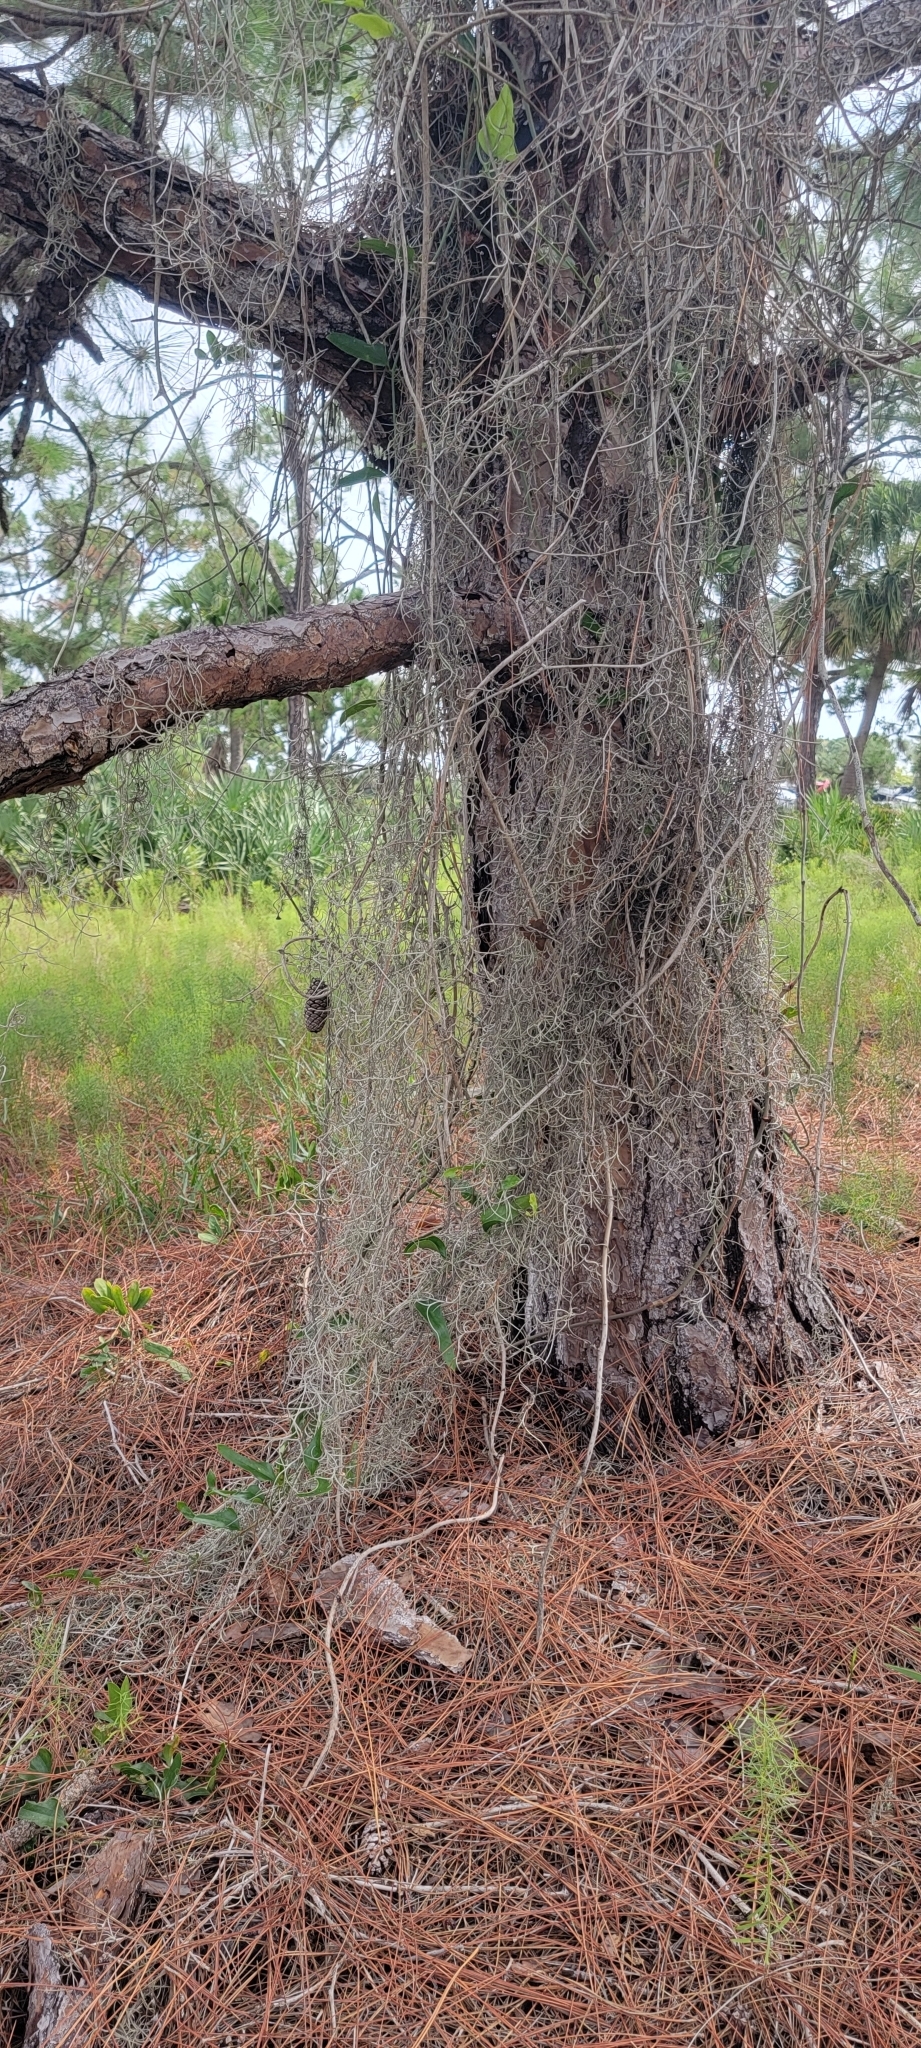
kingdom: Plantae
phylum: Tracheophyta
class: Liliopsida
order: Poales
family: Bromeliaceae
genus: Tillandsia
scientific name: Tillandsia usneoides
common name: Spanish moss
